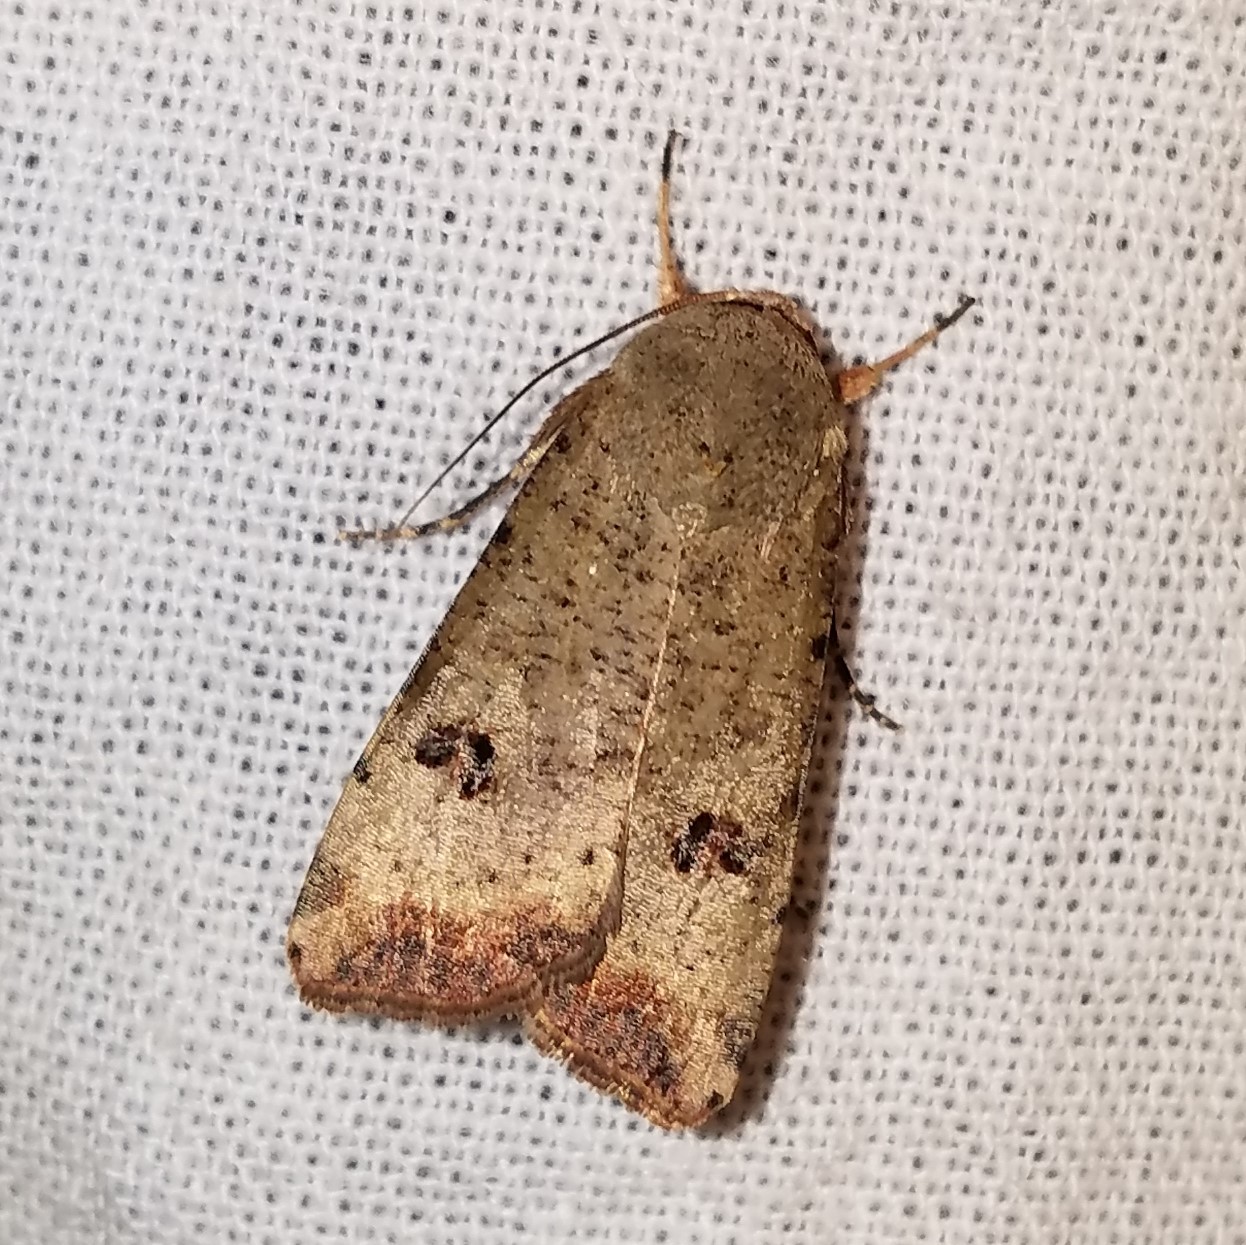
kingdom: Animalia
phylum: Arthropoda
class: Insecta
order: Lepidoptera
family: Noctuidae
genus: Anicla
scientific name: Anicla infecta
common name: Green cutworm
